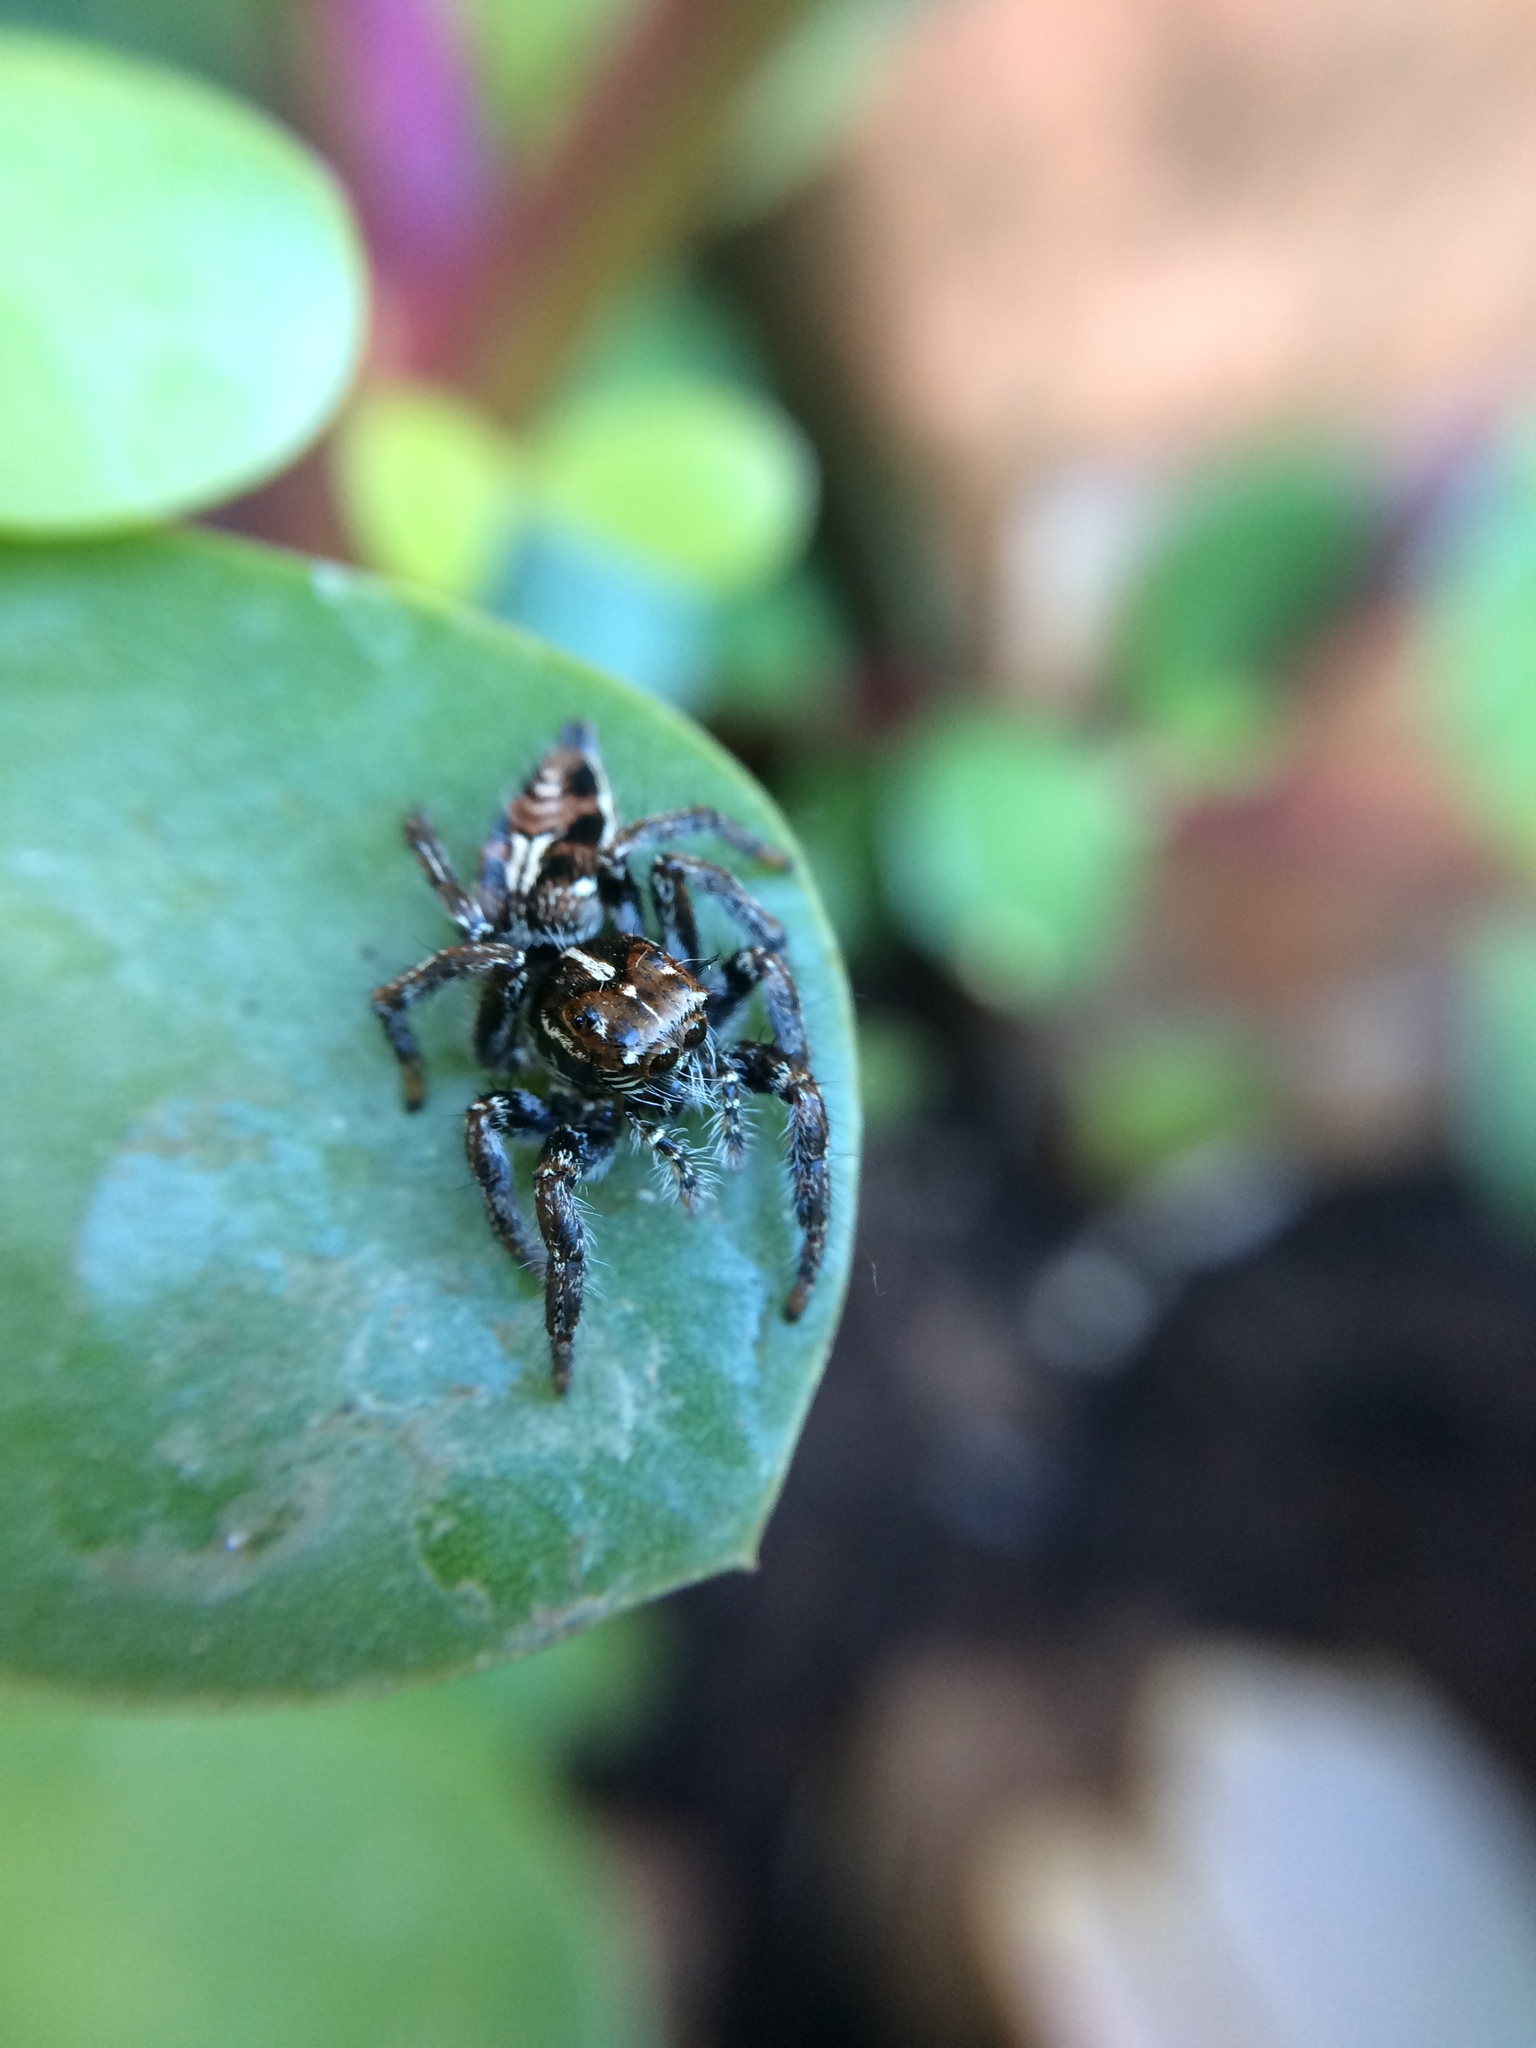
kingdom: Animalia
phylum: Arthropoda
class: Arachnida
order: Araneae
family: Salticidae
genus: Hyllus
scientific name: Hyllus argyrotoxus
